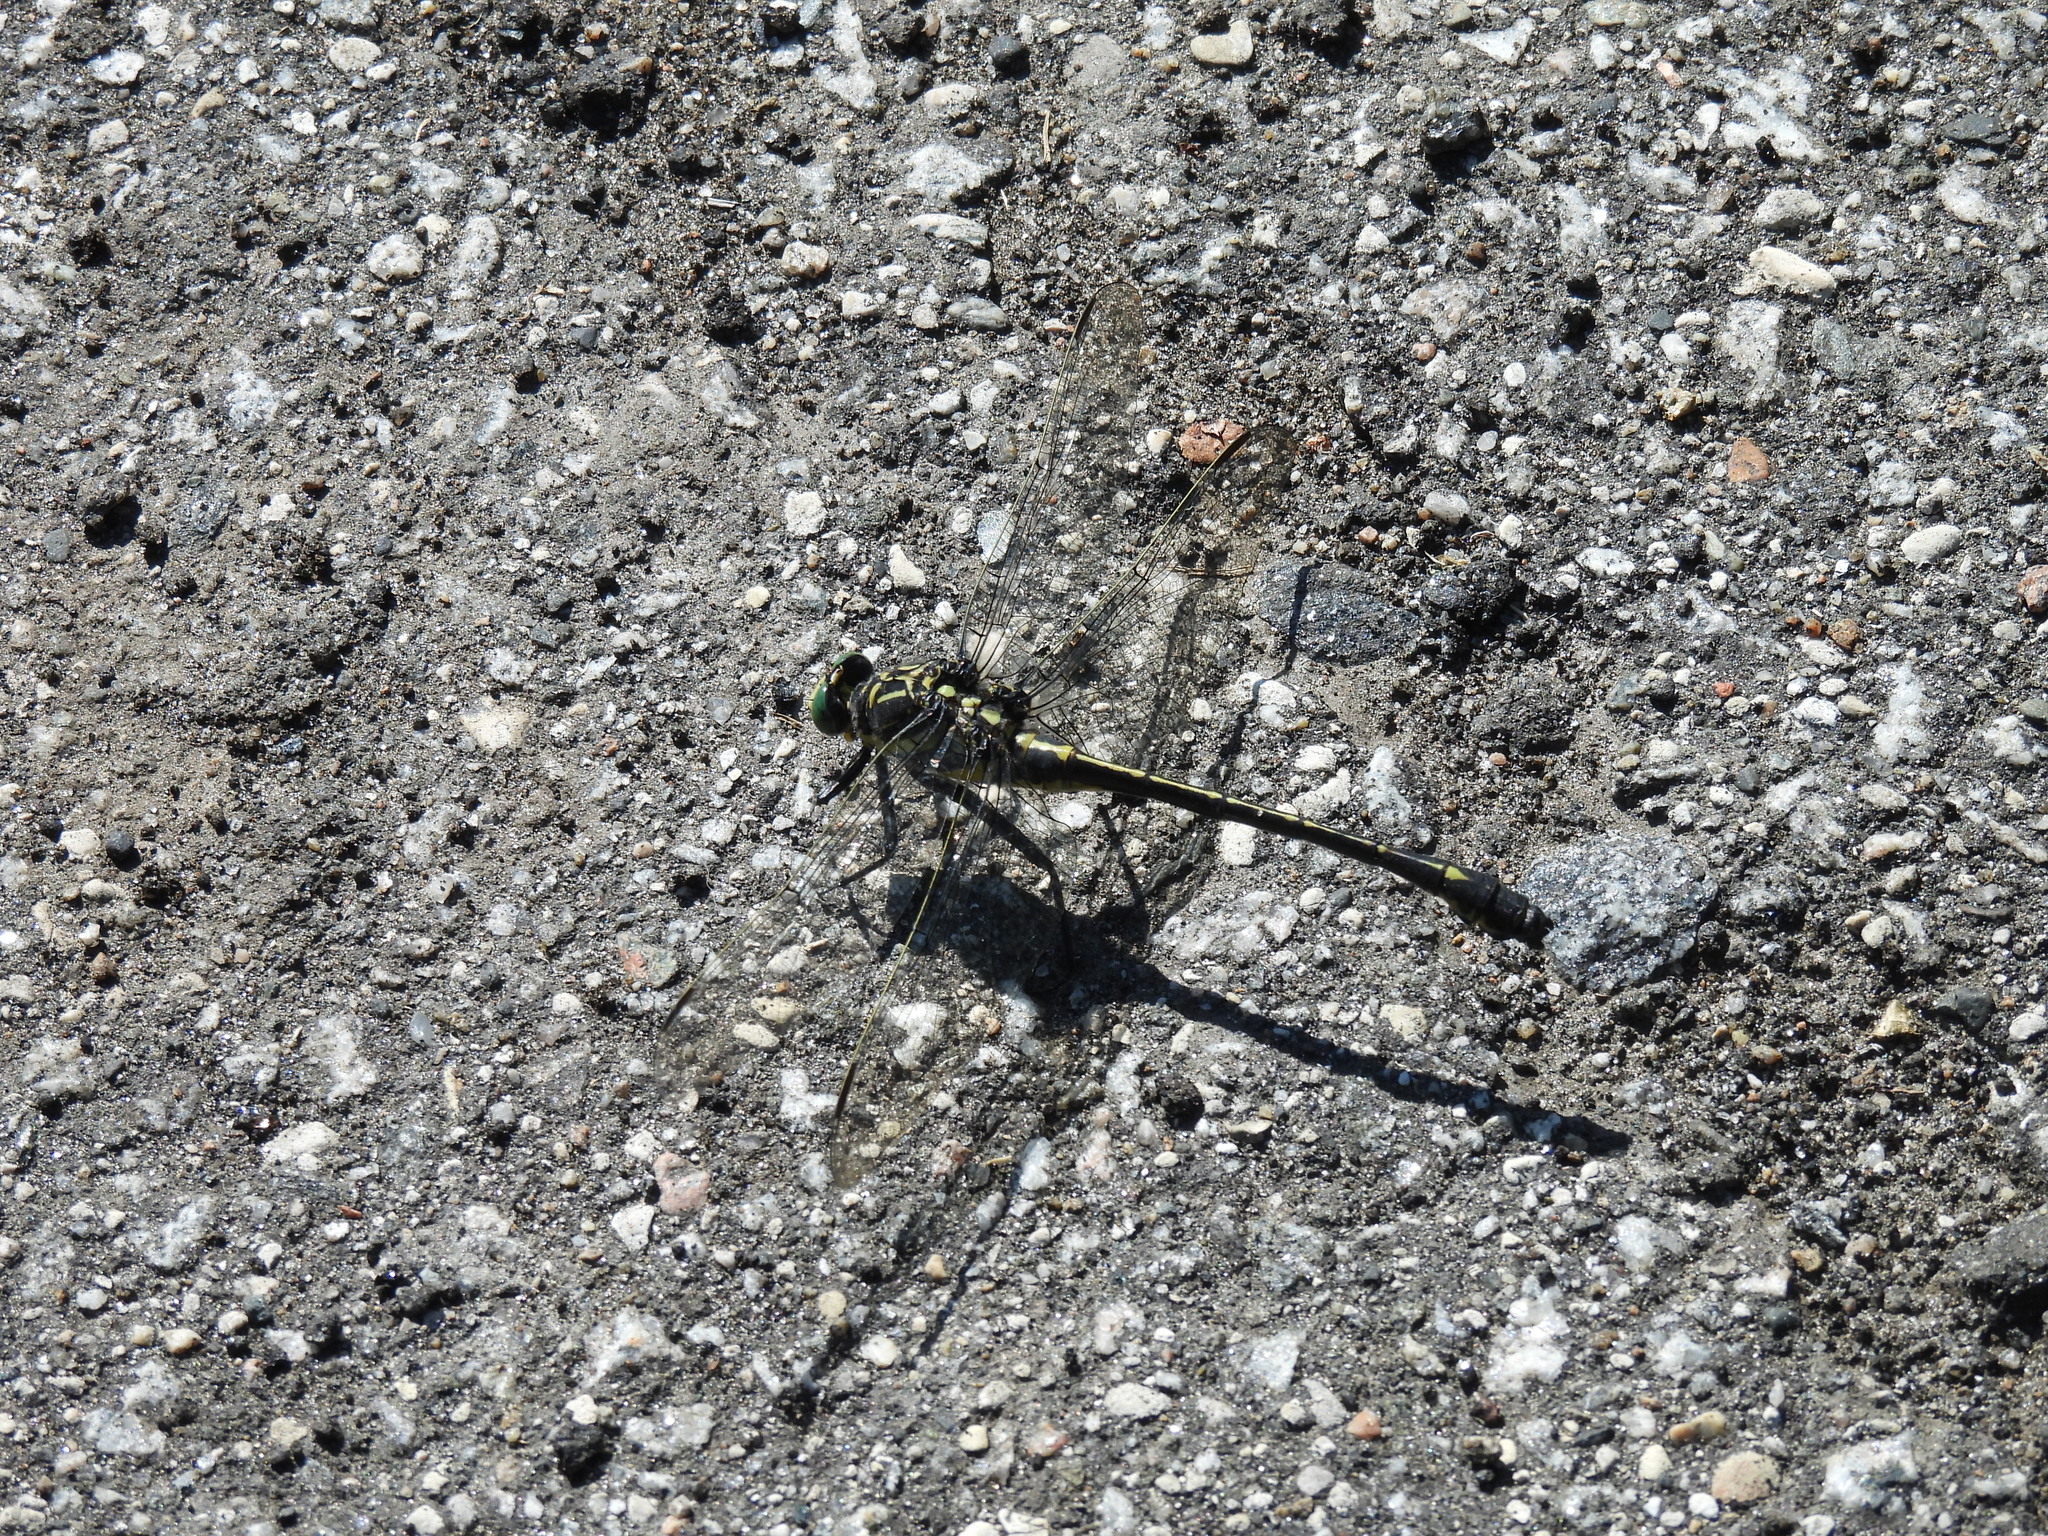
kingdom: Animalia
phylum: Arthropoda
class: Insecta
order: Odonata
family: Gomphidae
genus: Hagenius
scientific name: Hagenius brevistylus
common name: Dragonhunter
